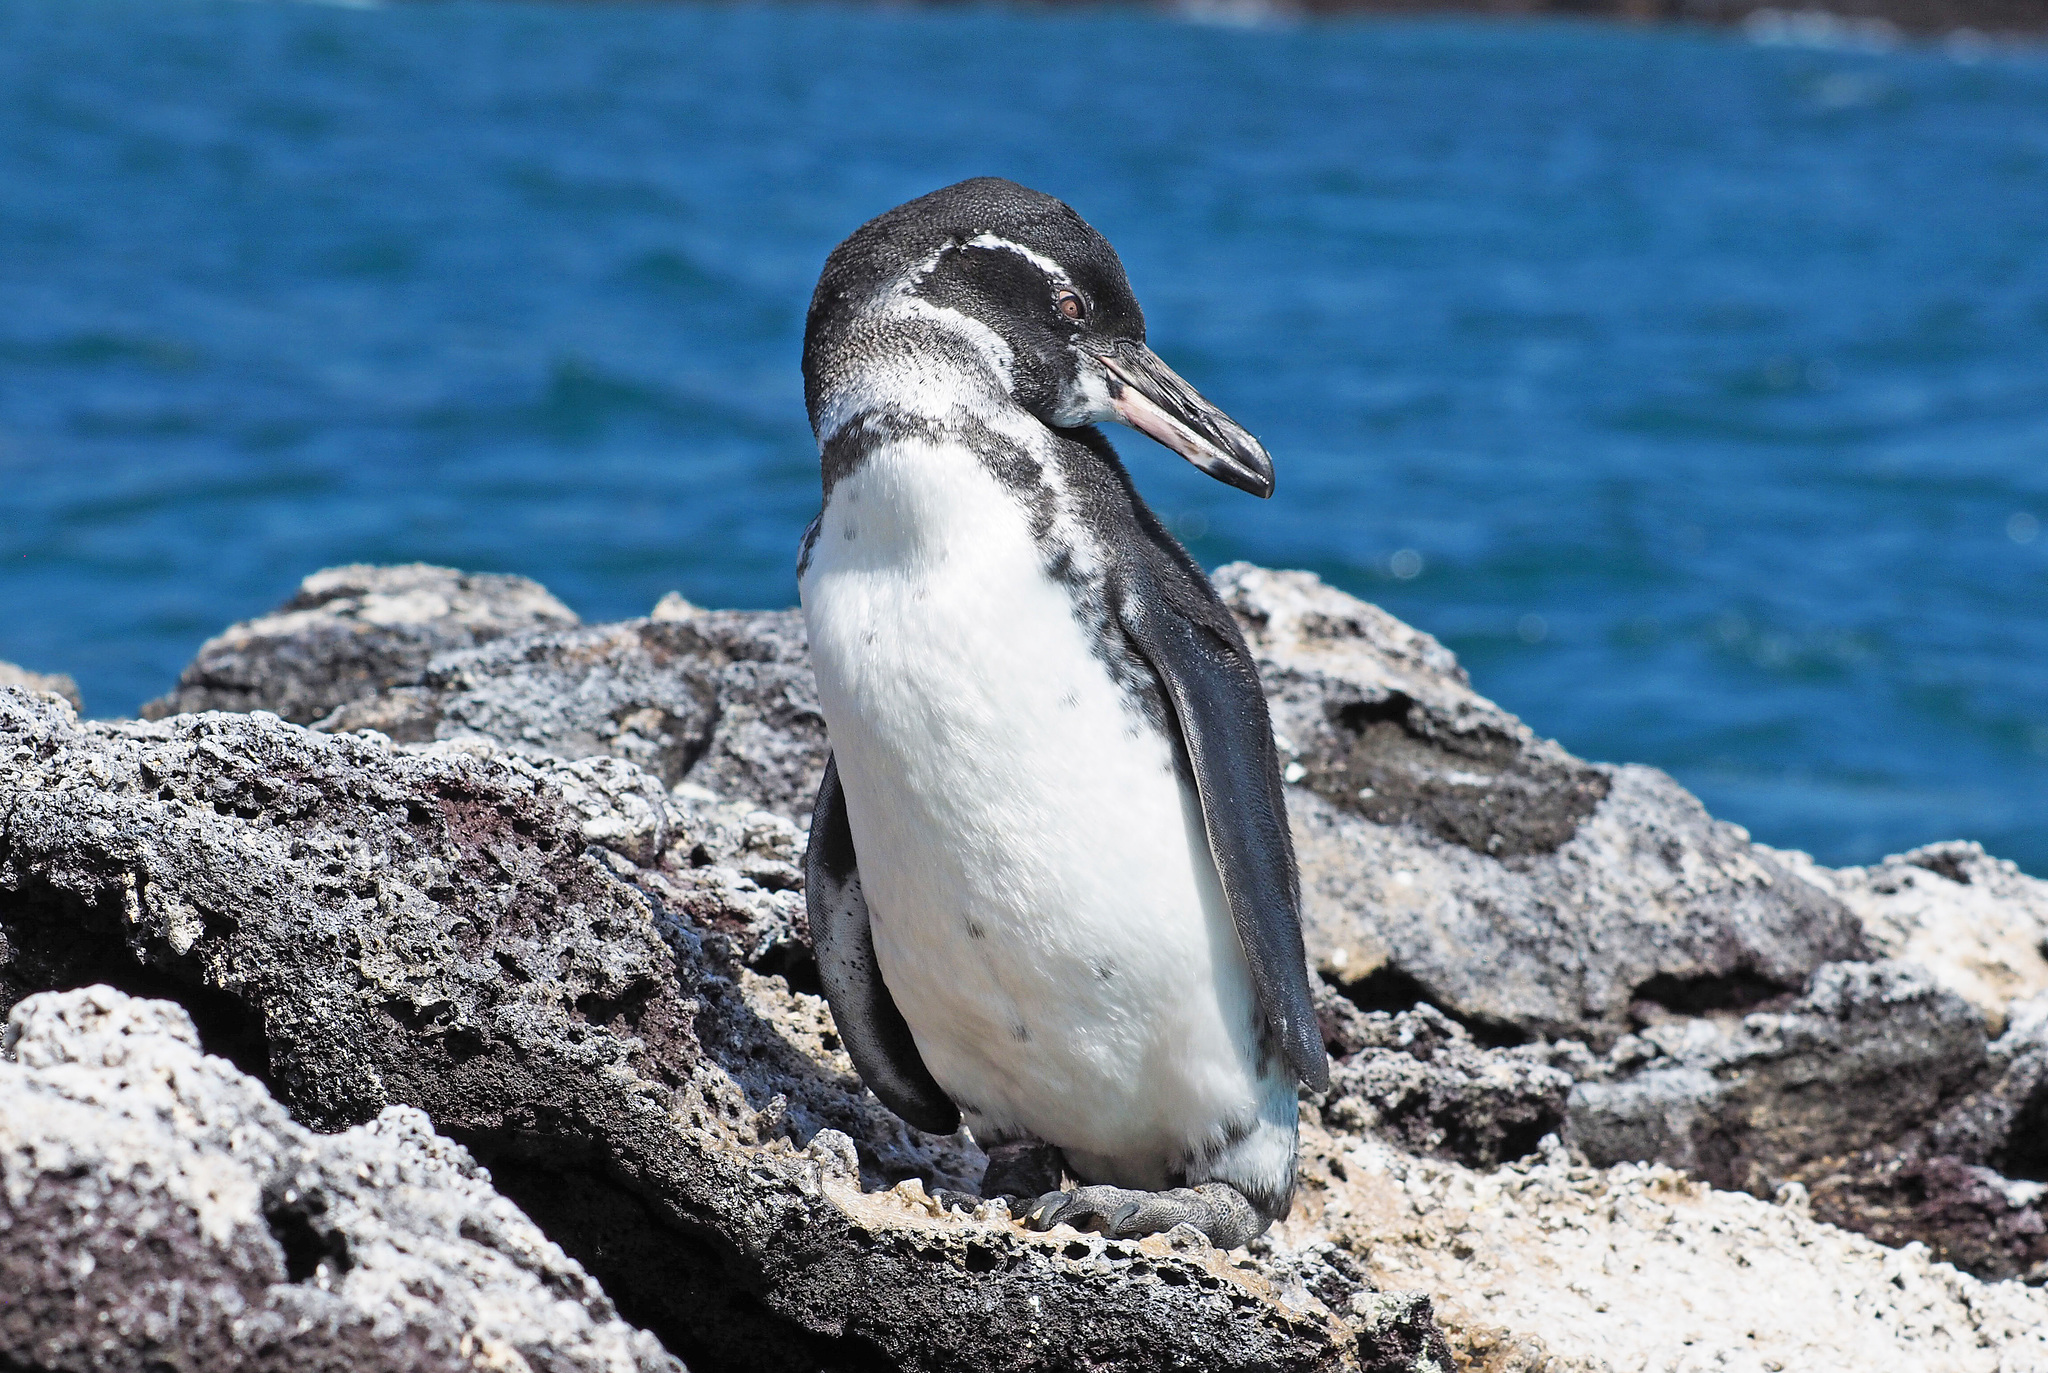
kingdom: Animalia
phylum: Chordata
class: Aves
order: Sphenisciformes
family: Spheniscidae
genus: Spheniscus
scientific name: Spheniscus mendiculus
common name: Galapagos penguin
